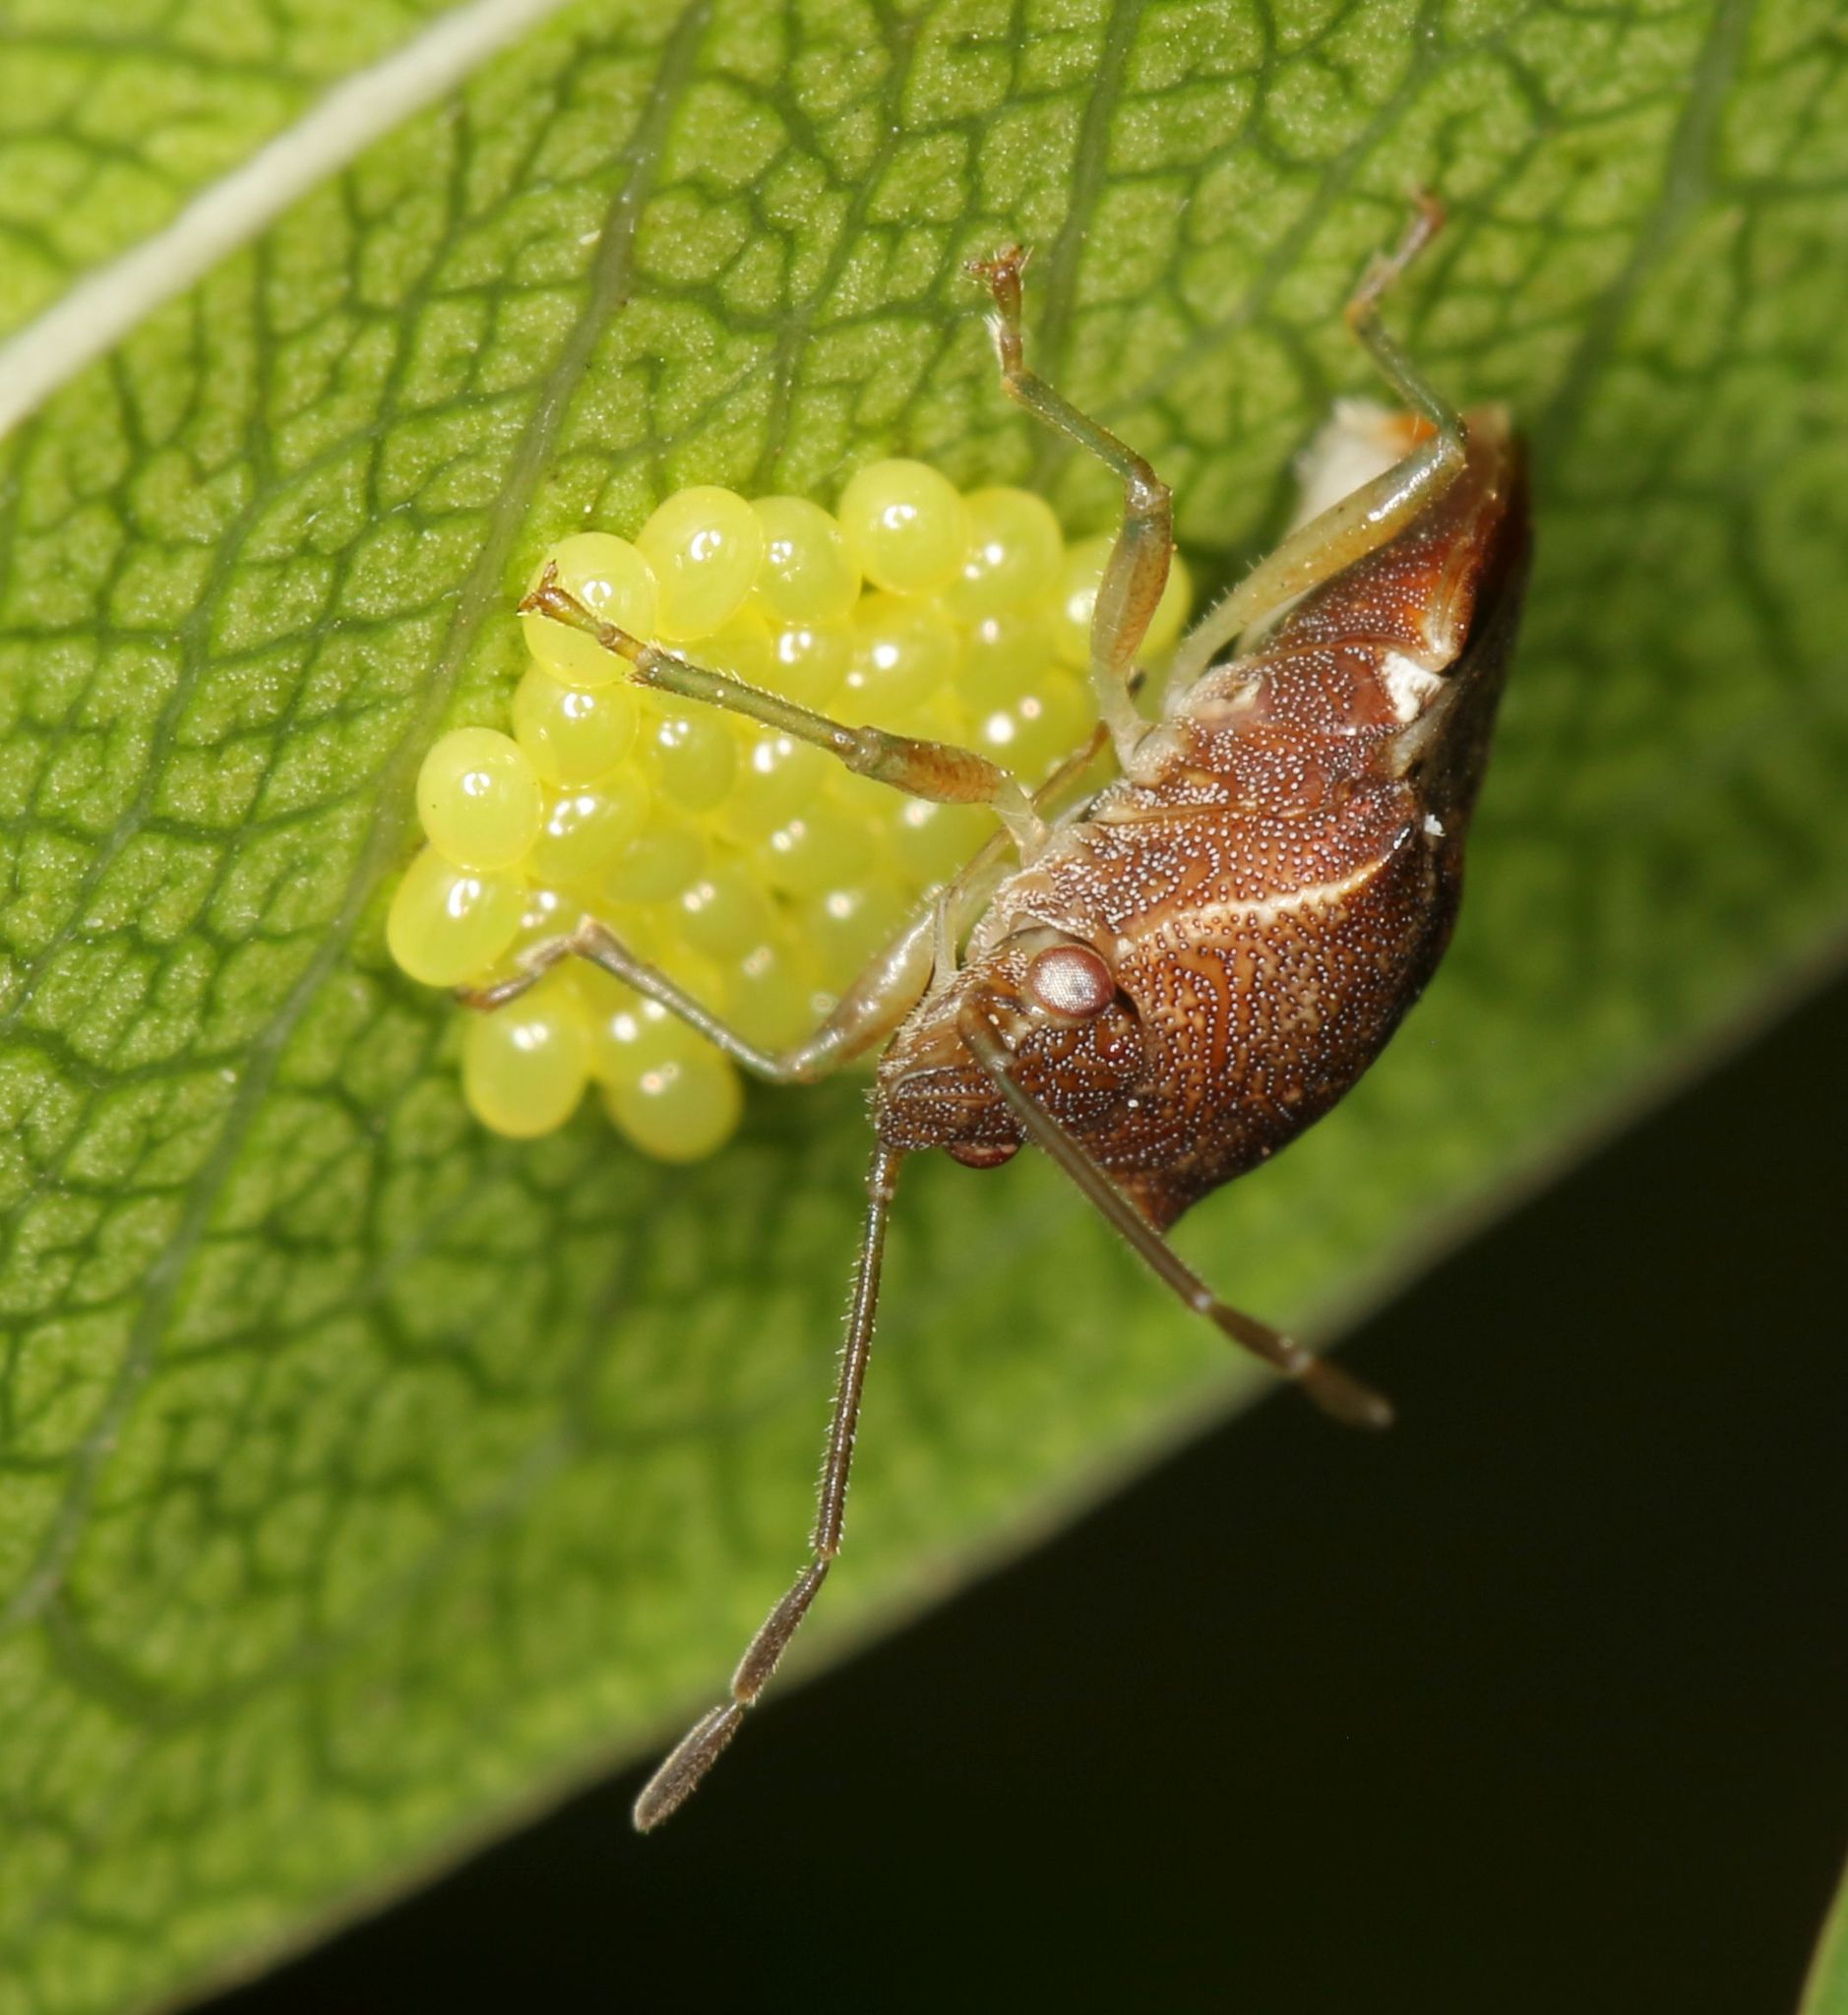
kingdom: Animalia
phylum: Arthropoda
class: Insecta
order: Hemiptera
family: Acanthosomatidae
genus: Uhlunga
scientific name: Uhlunga typica
